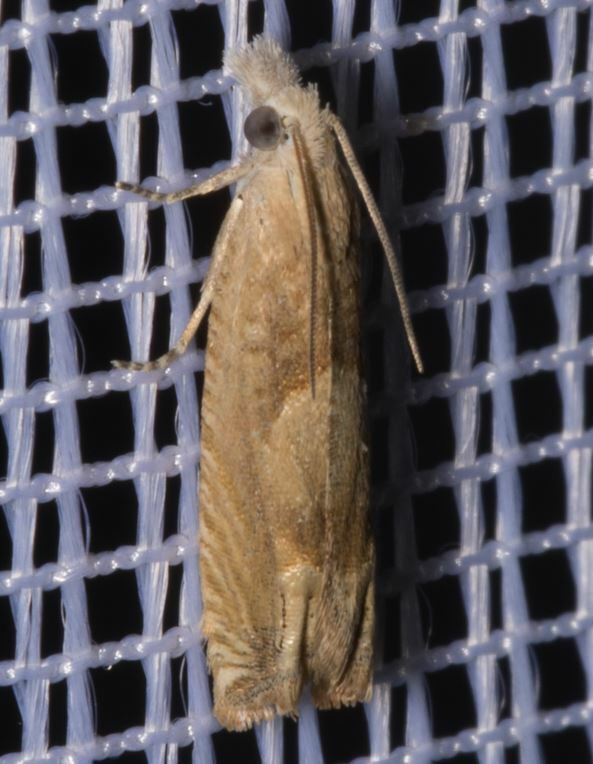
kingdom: Animalia
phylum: Arthropoda
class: Insecta
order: Lepidoptera
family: Tortricidae
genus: Eucosma
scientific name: Eucosma conterminana
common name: Pale lettuce bell
